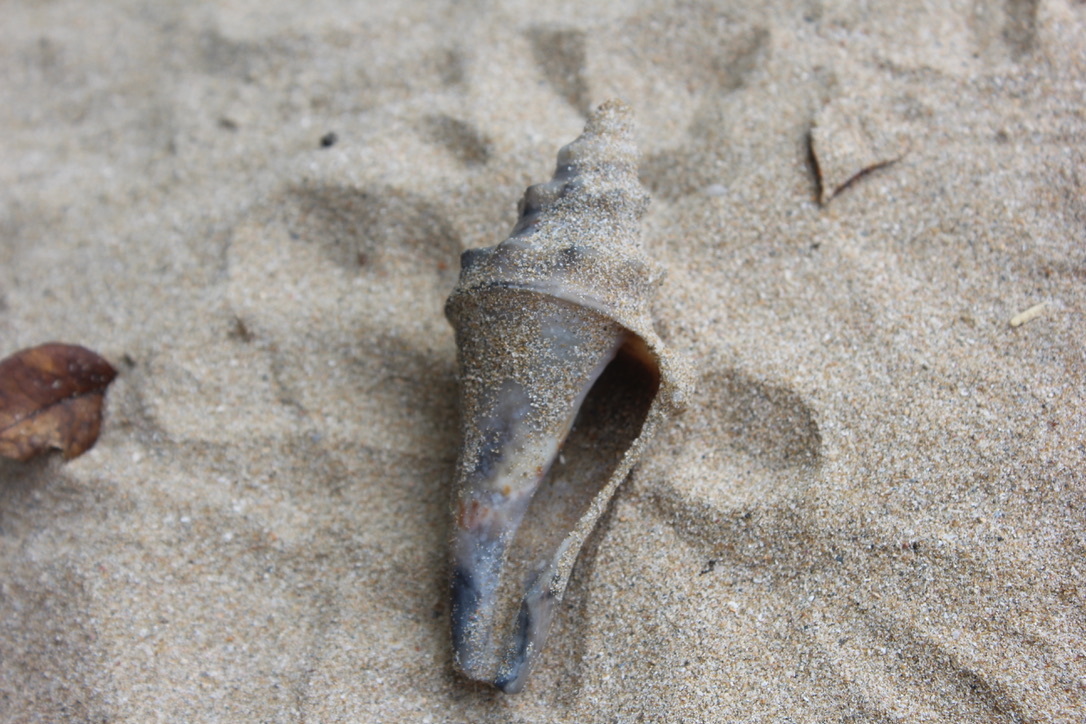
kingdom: Animalia
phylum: Mollusca
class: Gastropoda
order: Littorinimorpha
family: Strombidae
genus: Aliger
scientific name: Aliger gigas
